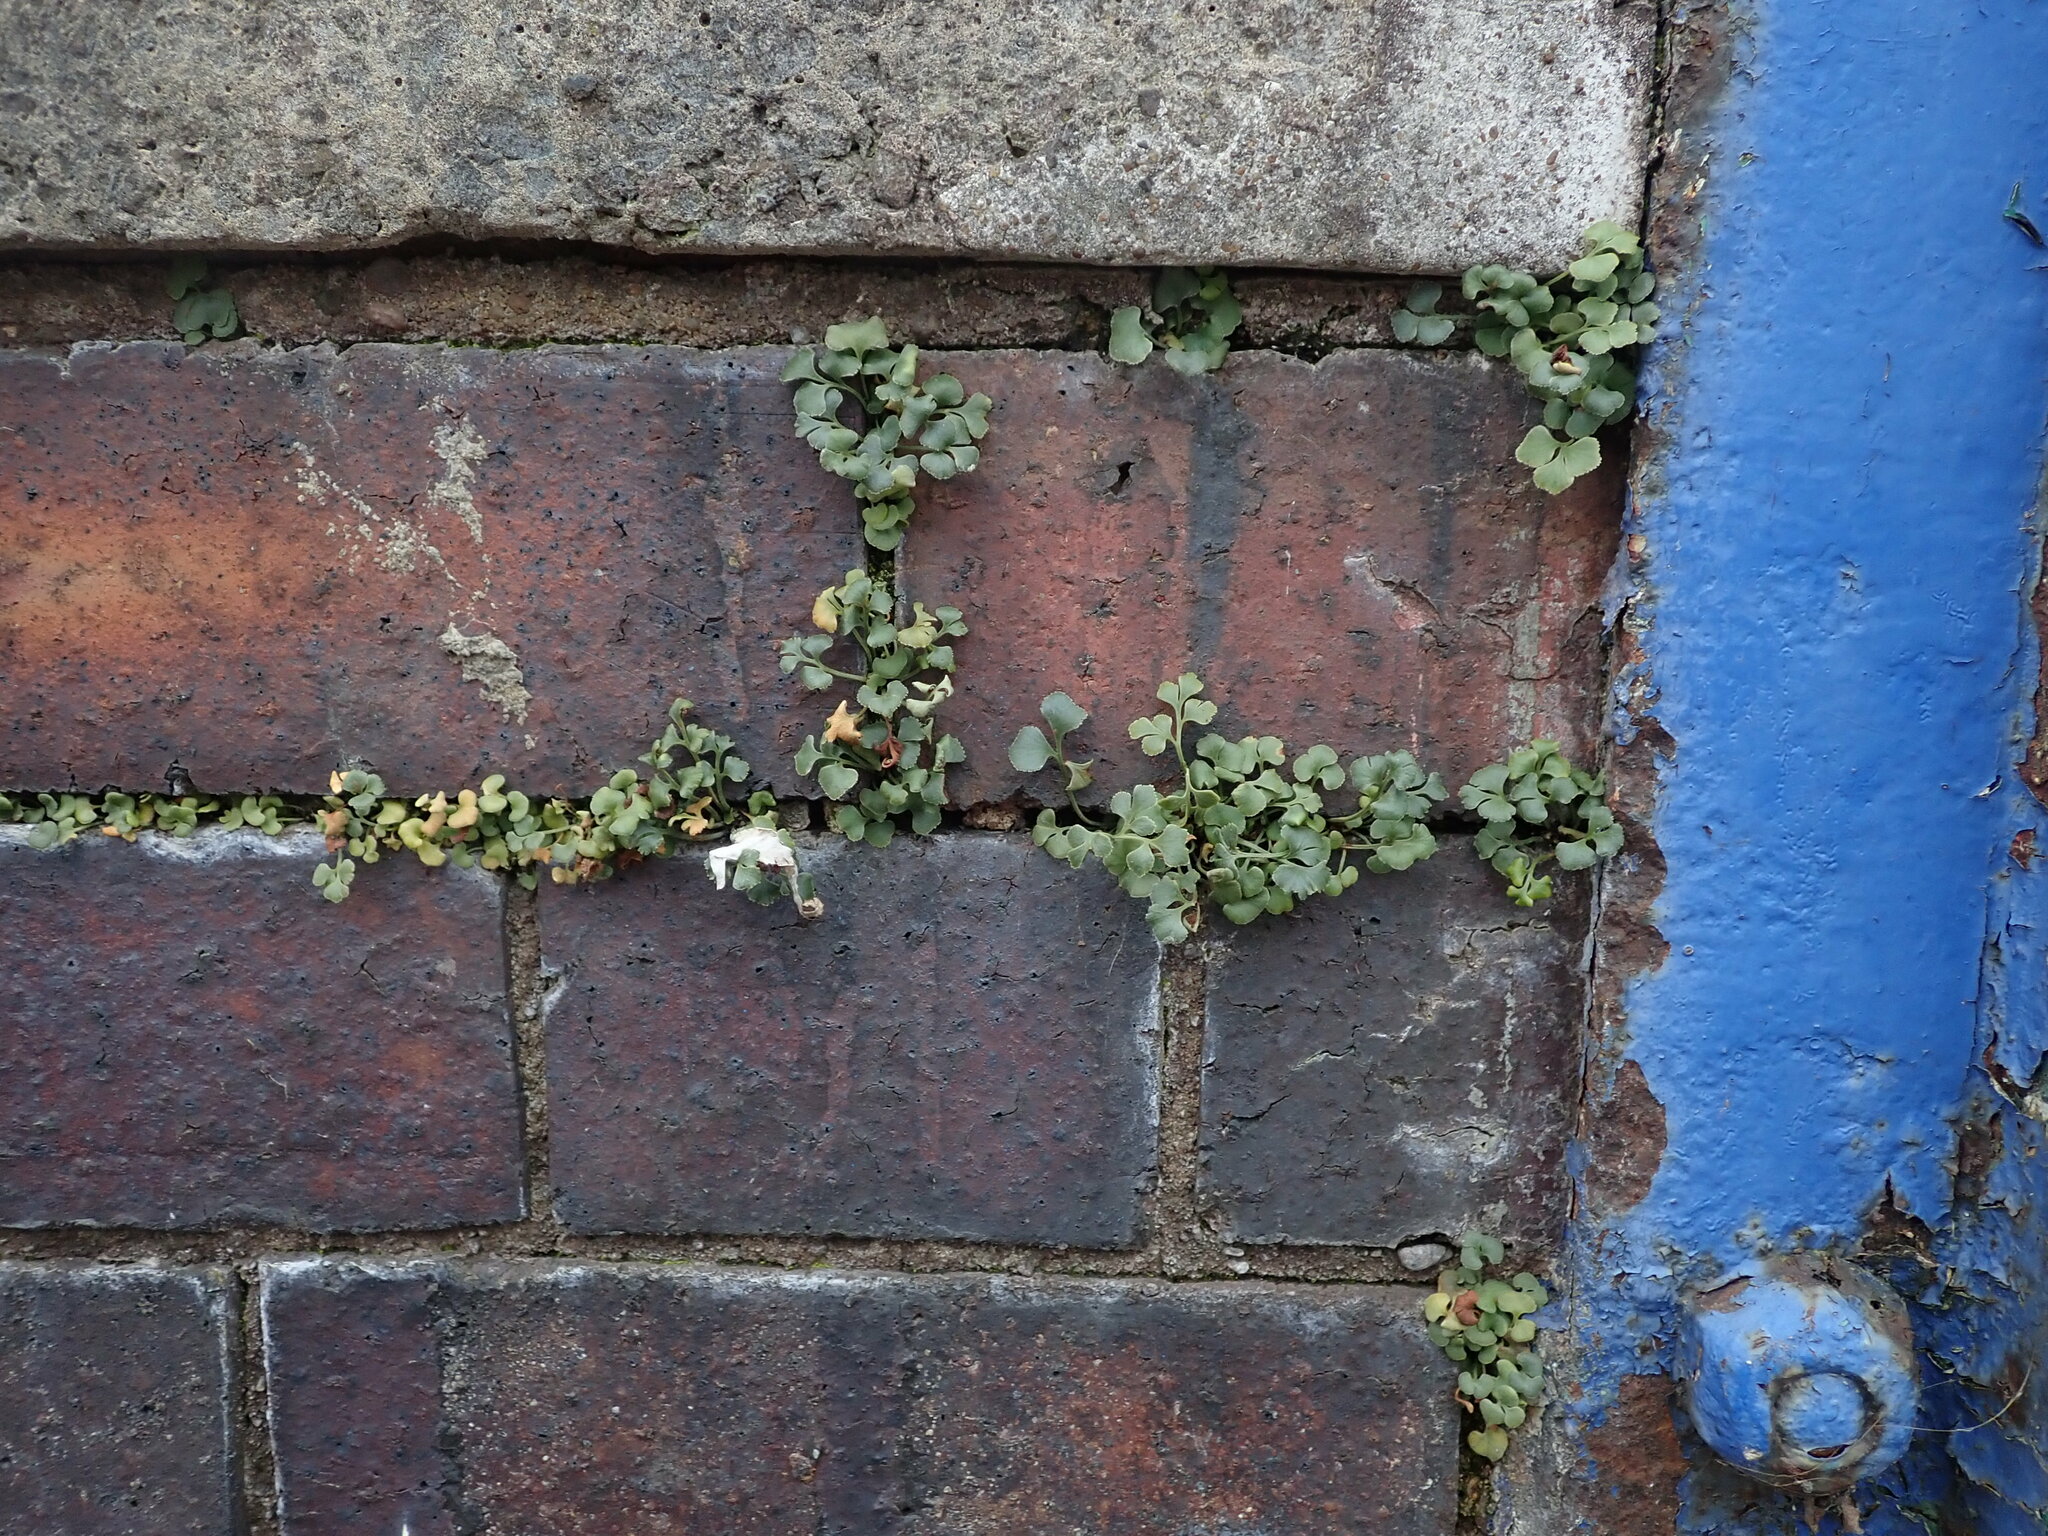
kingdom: Plantae
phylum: Tracheophyta
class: Polypodiopsida
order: Polypodiales
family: Aspleniaceae
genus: Asplenium
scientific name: Asplenium ruta-muraria
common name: Wall-rue
